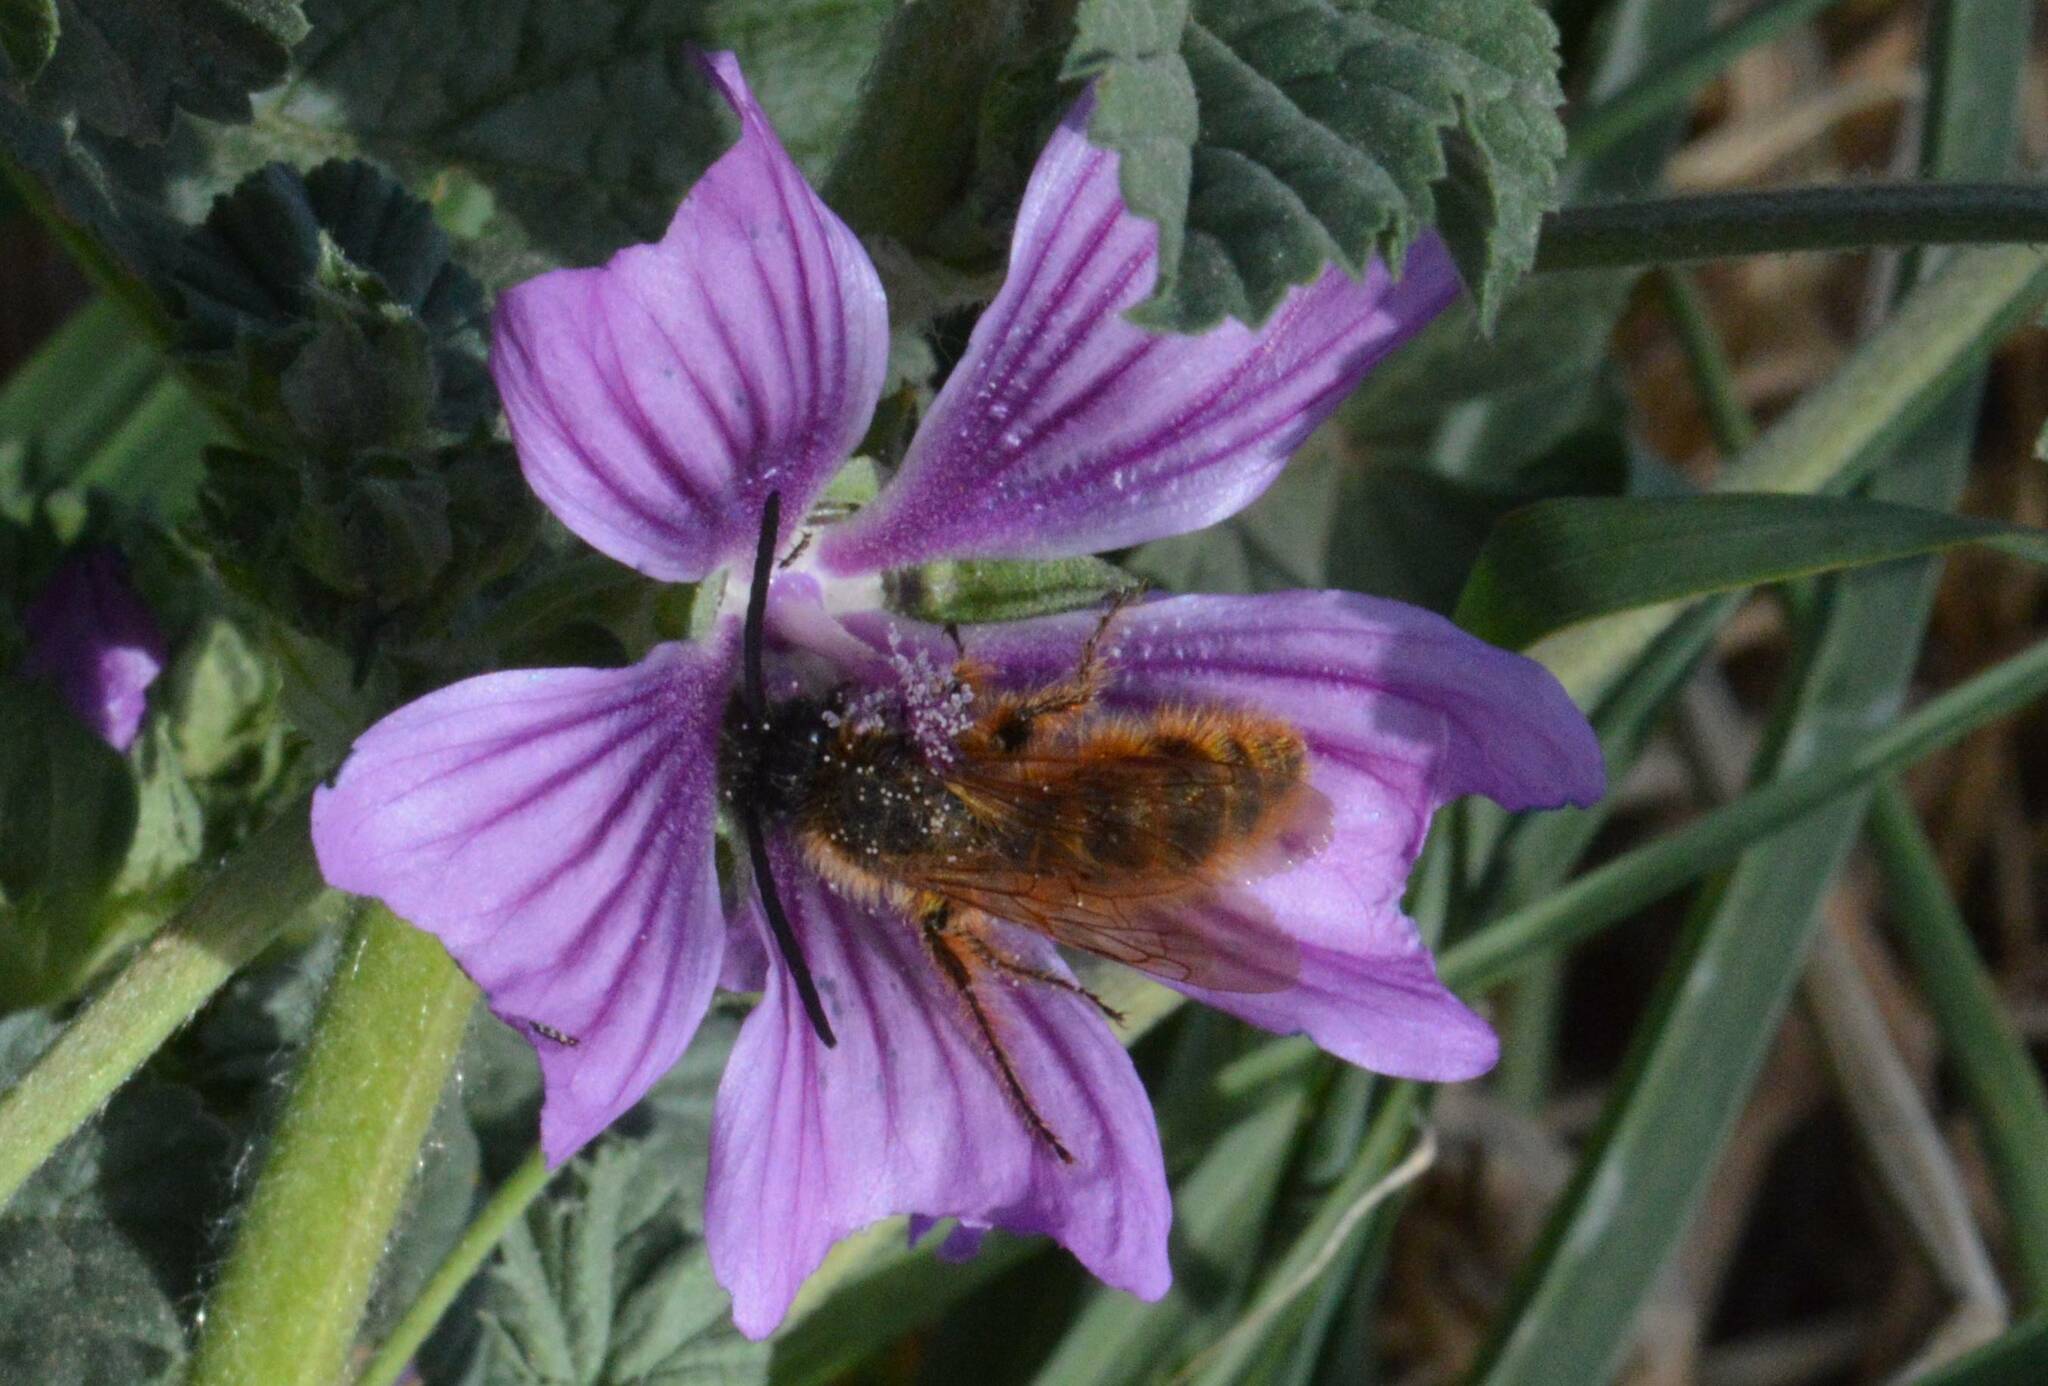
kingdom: Animalia
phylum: Arthropoda
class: Insecta
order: Hymenoptera
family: Scoliidae
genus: Dasyscolia
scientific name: Dasyscolia ciliata
